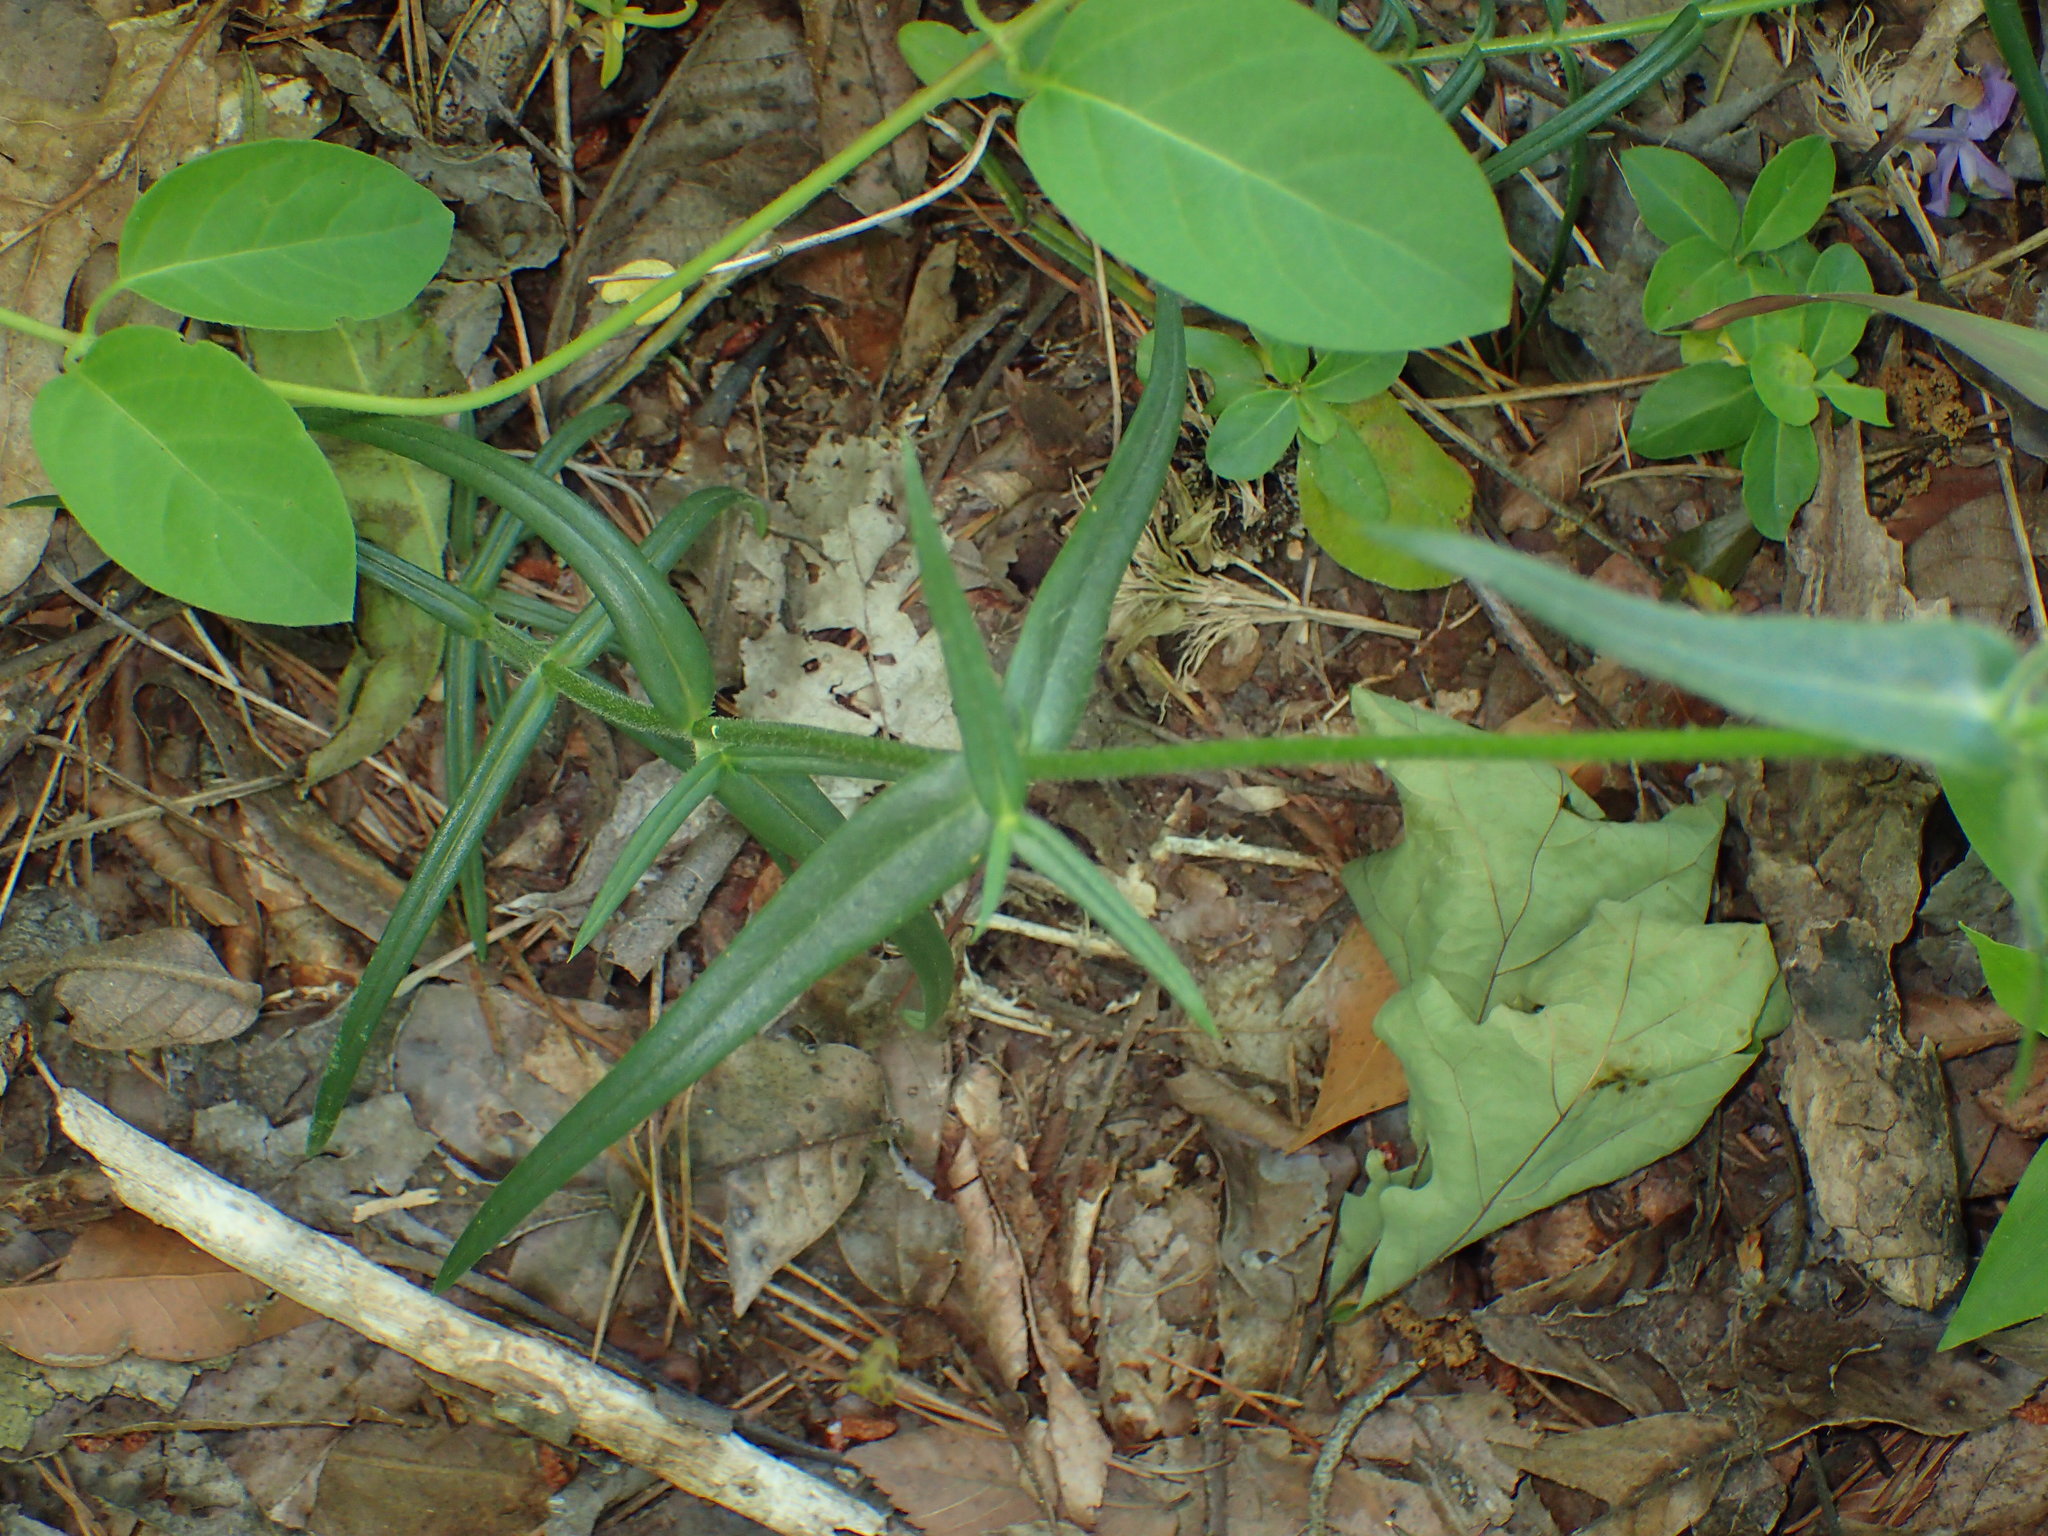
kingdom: Plantae
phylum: Tracheophyta
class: Magnoliopsida
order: Ericales
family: Polemoniaceae
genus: Phlox
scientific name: Phlox pilosa
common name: Prairie phlox
